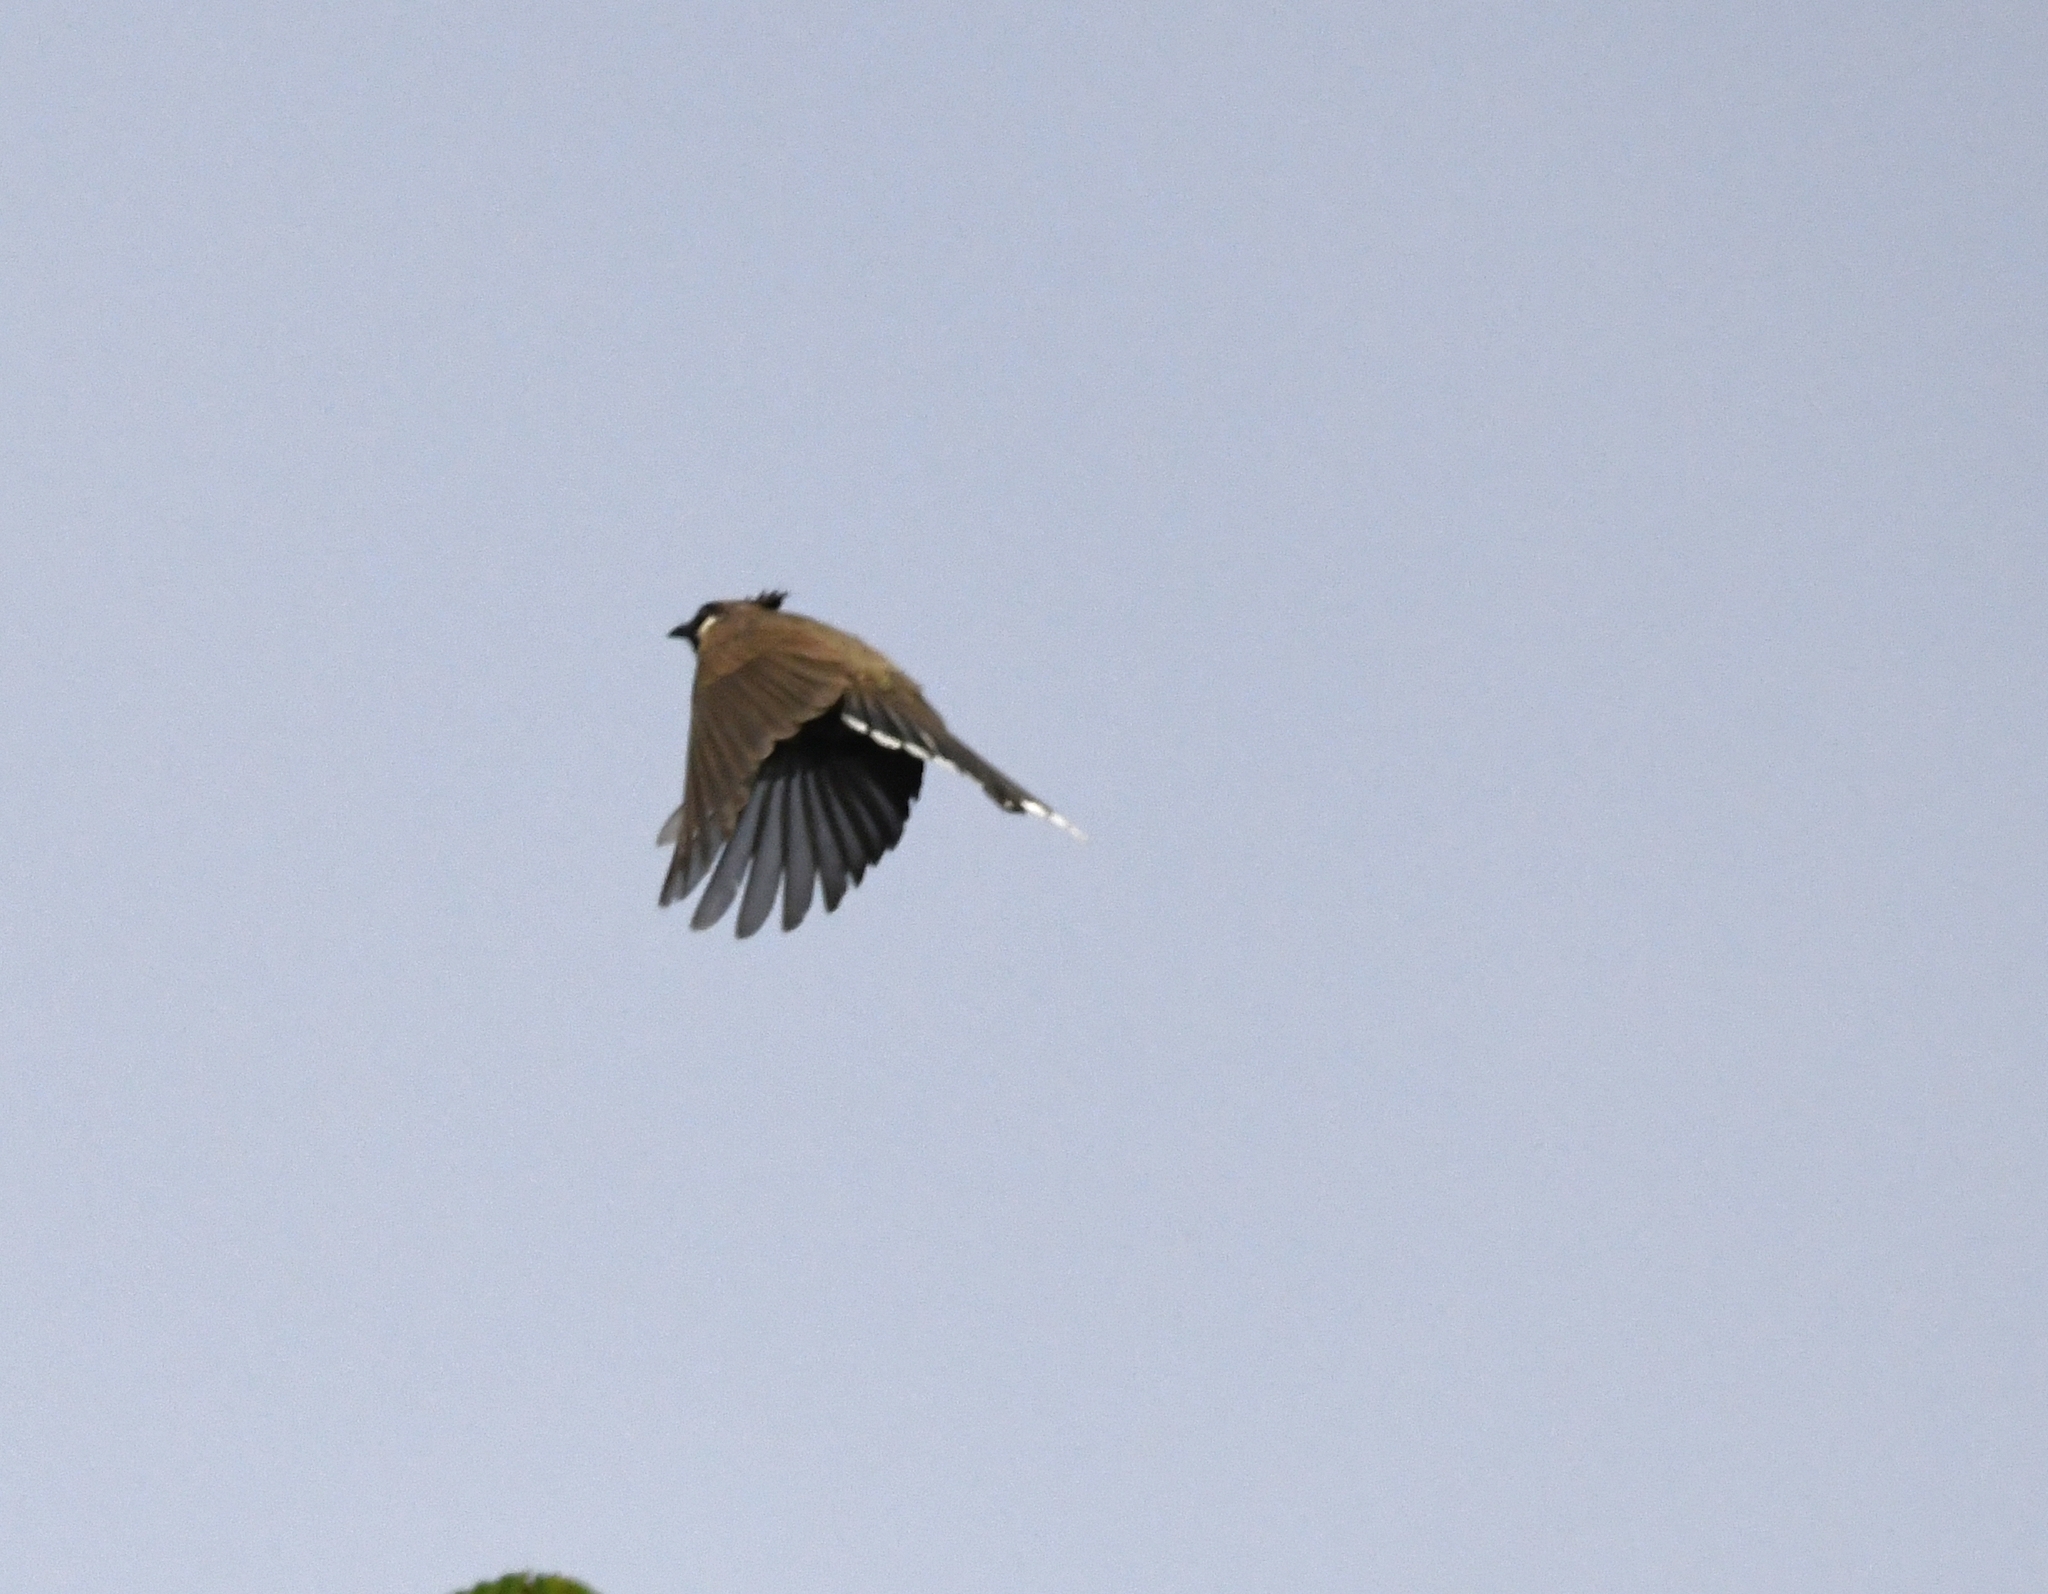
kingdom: Animalia
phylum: Chordata
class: Aves
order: Passeriformes
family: Pycnonotidae
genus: Pycnonotus
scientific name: Pycnonotus leucogenys
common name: Himalayan bulbul
